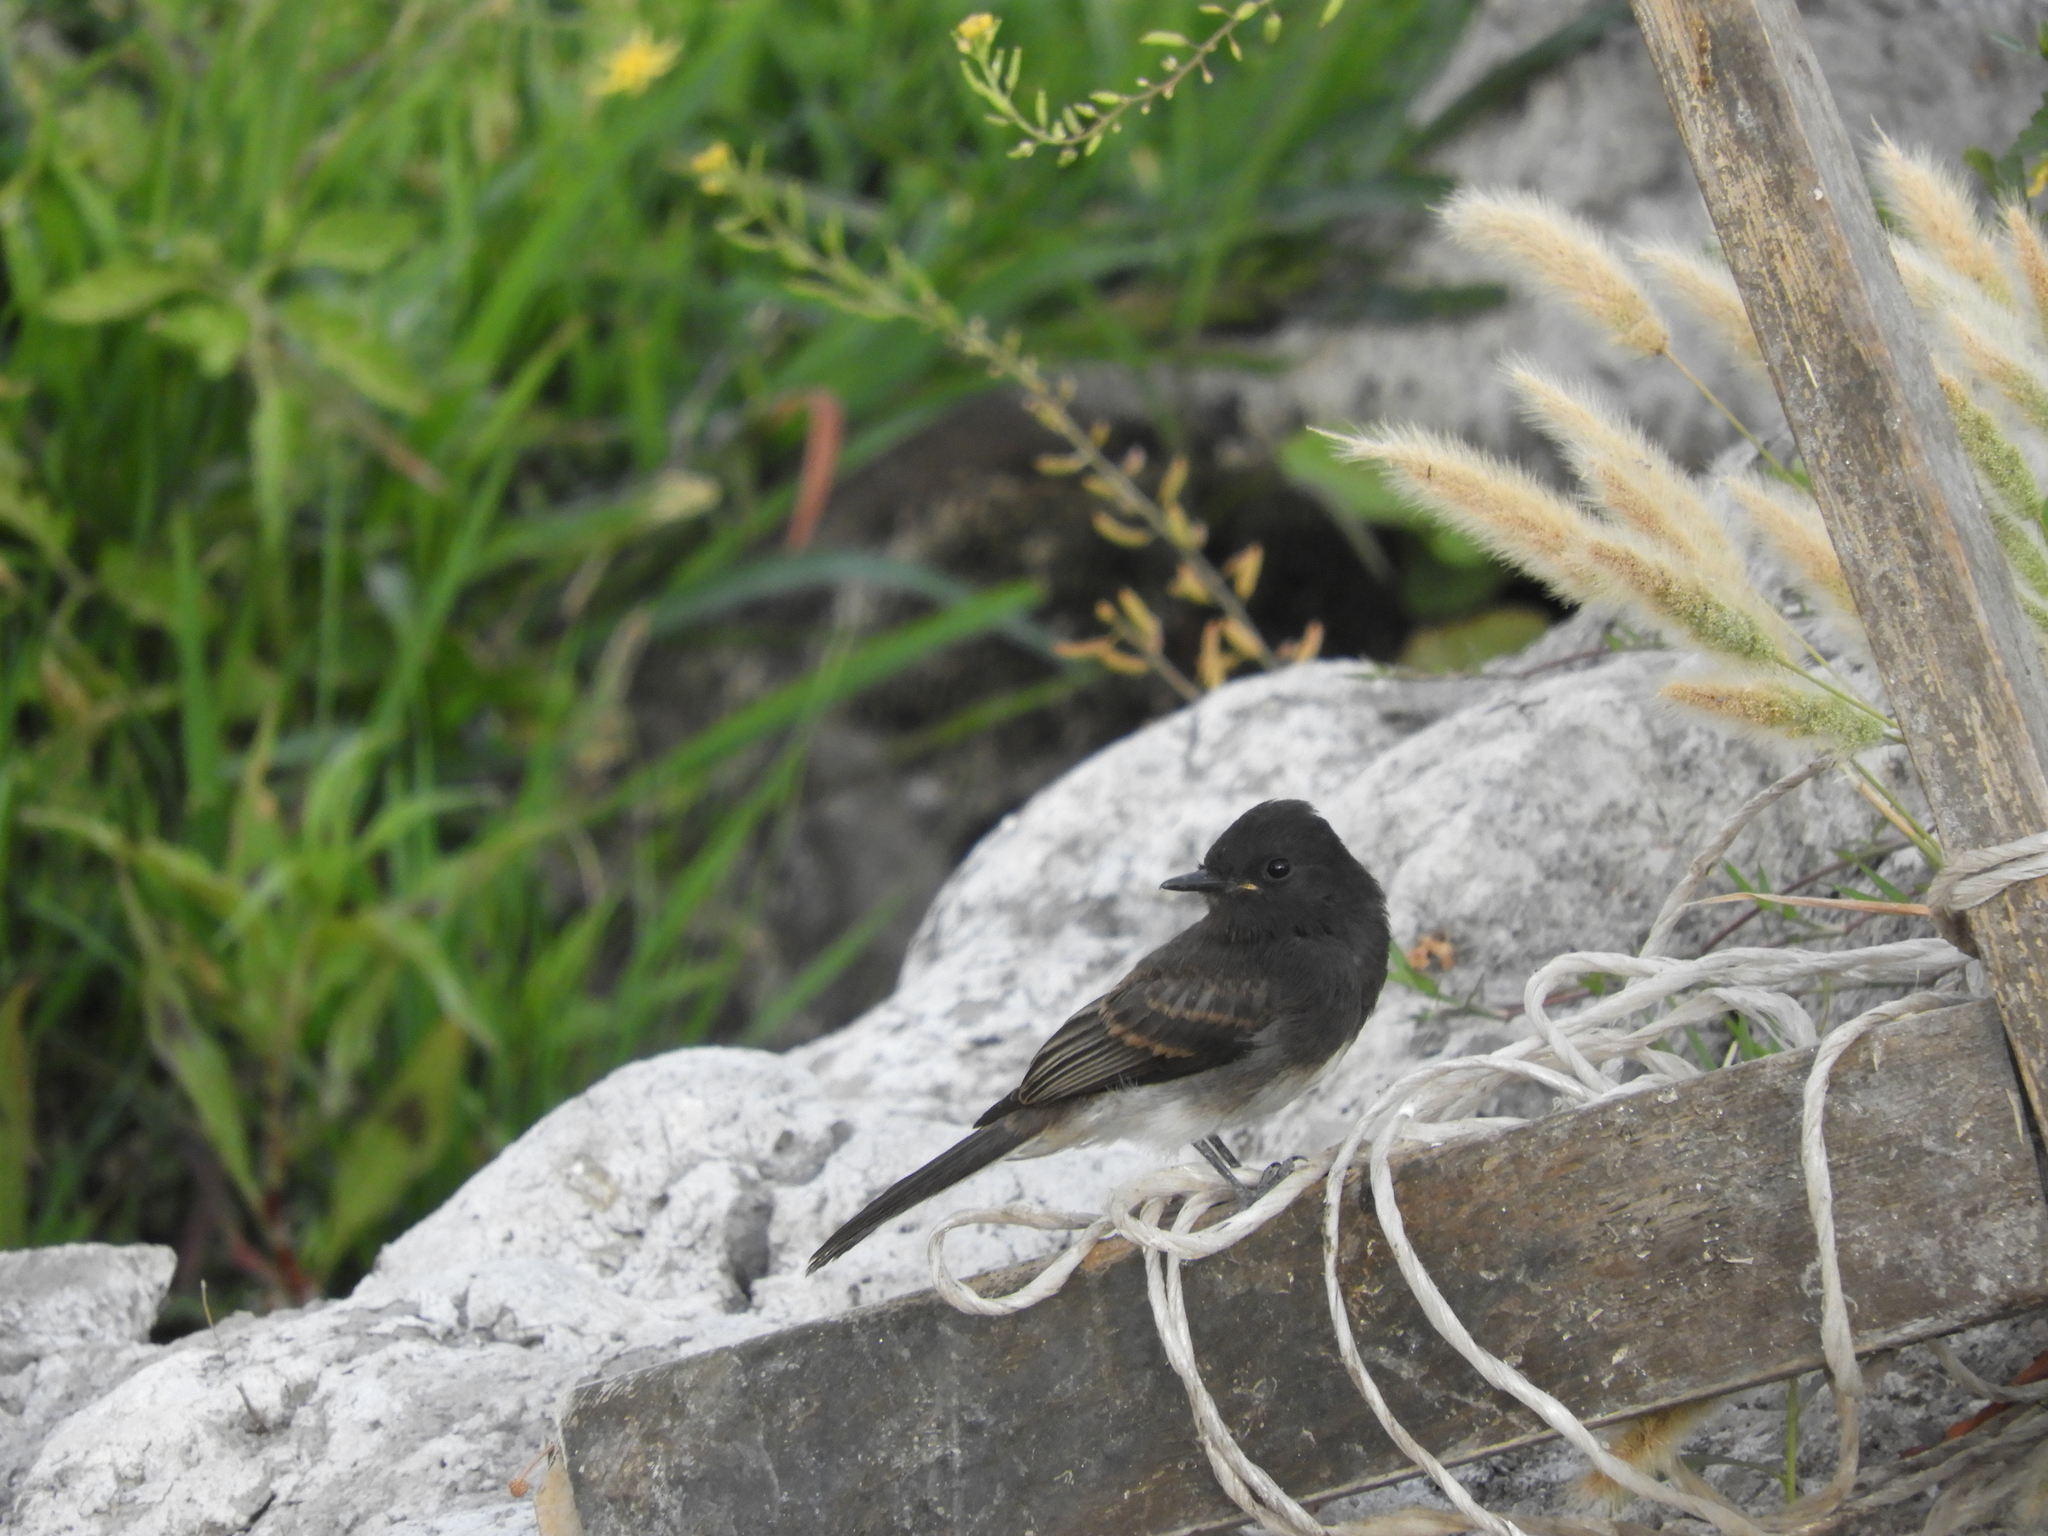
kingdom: Animalia
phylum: Chordata
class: Aves
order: Passeriformes
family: Tyrannidae
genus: Sayornis
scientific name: Sayornis nigricans
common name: Black phoebe
